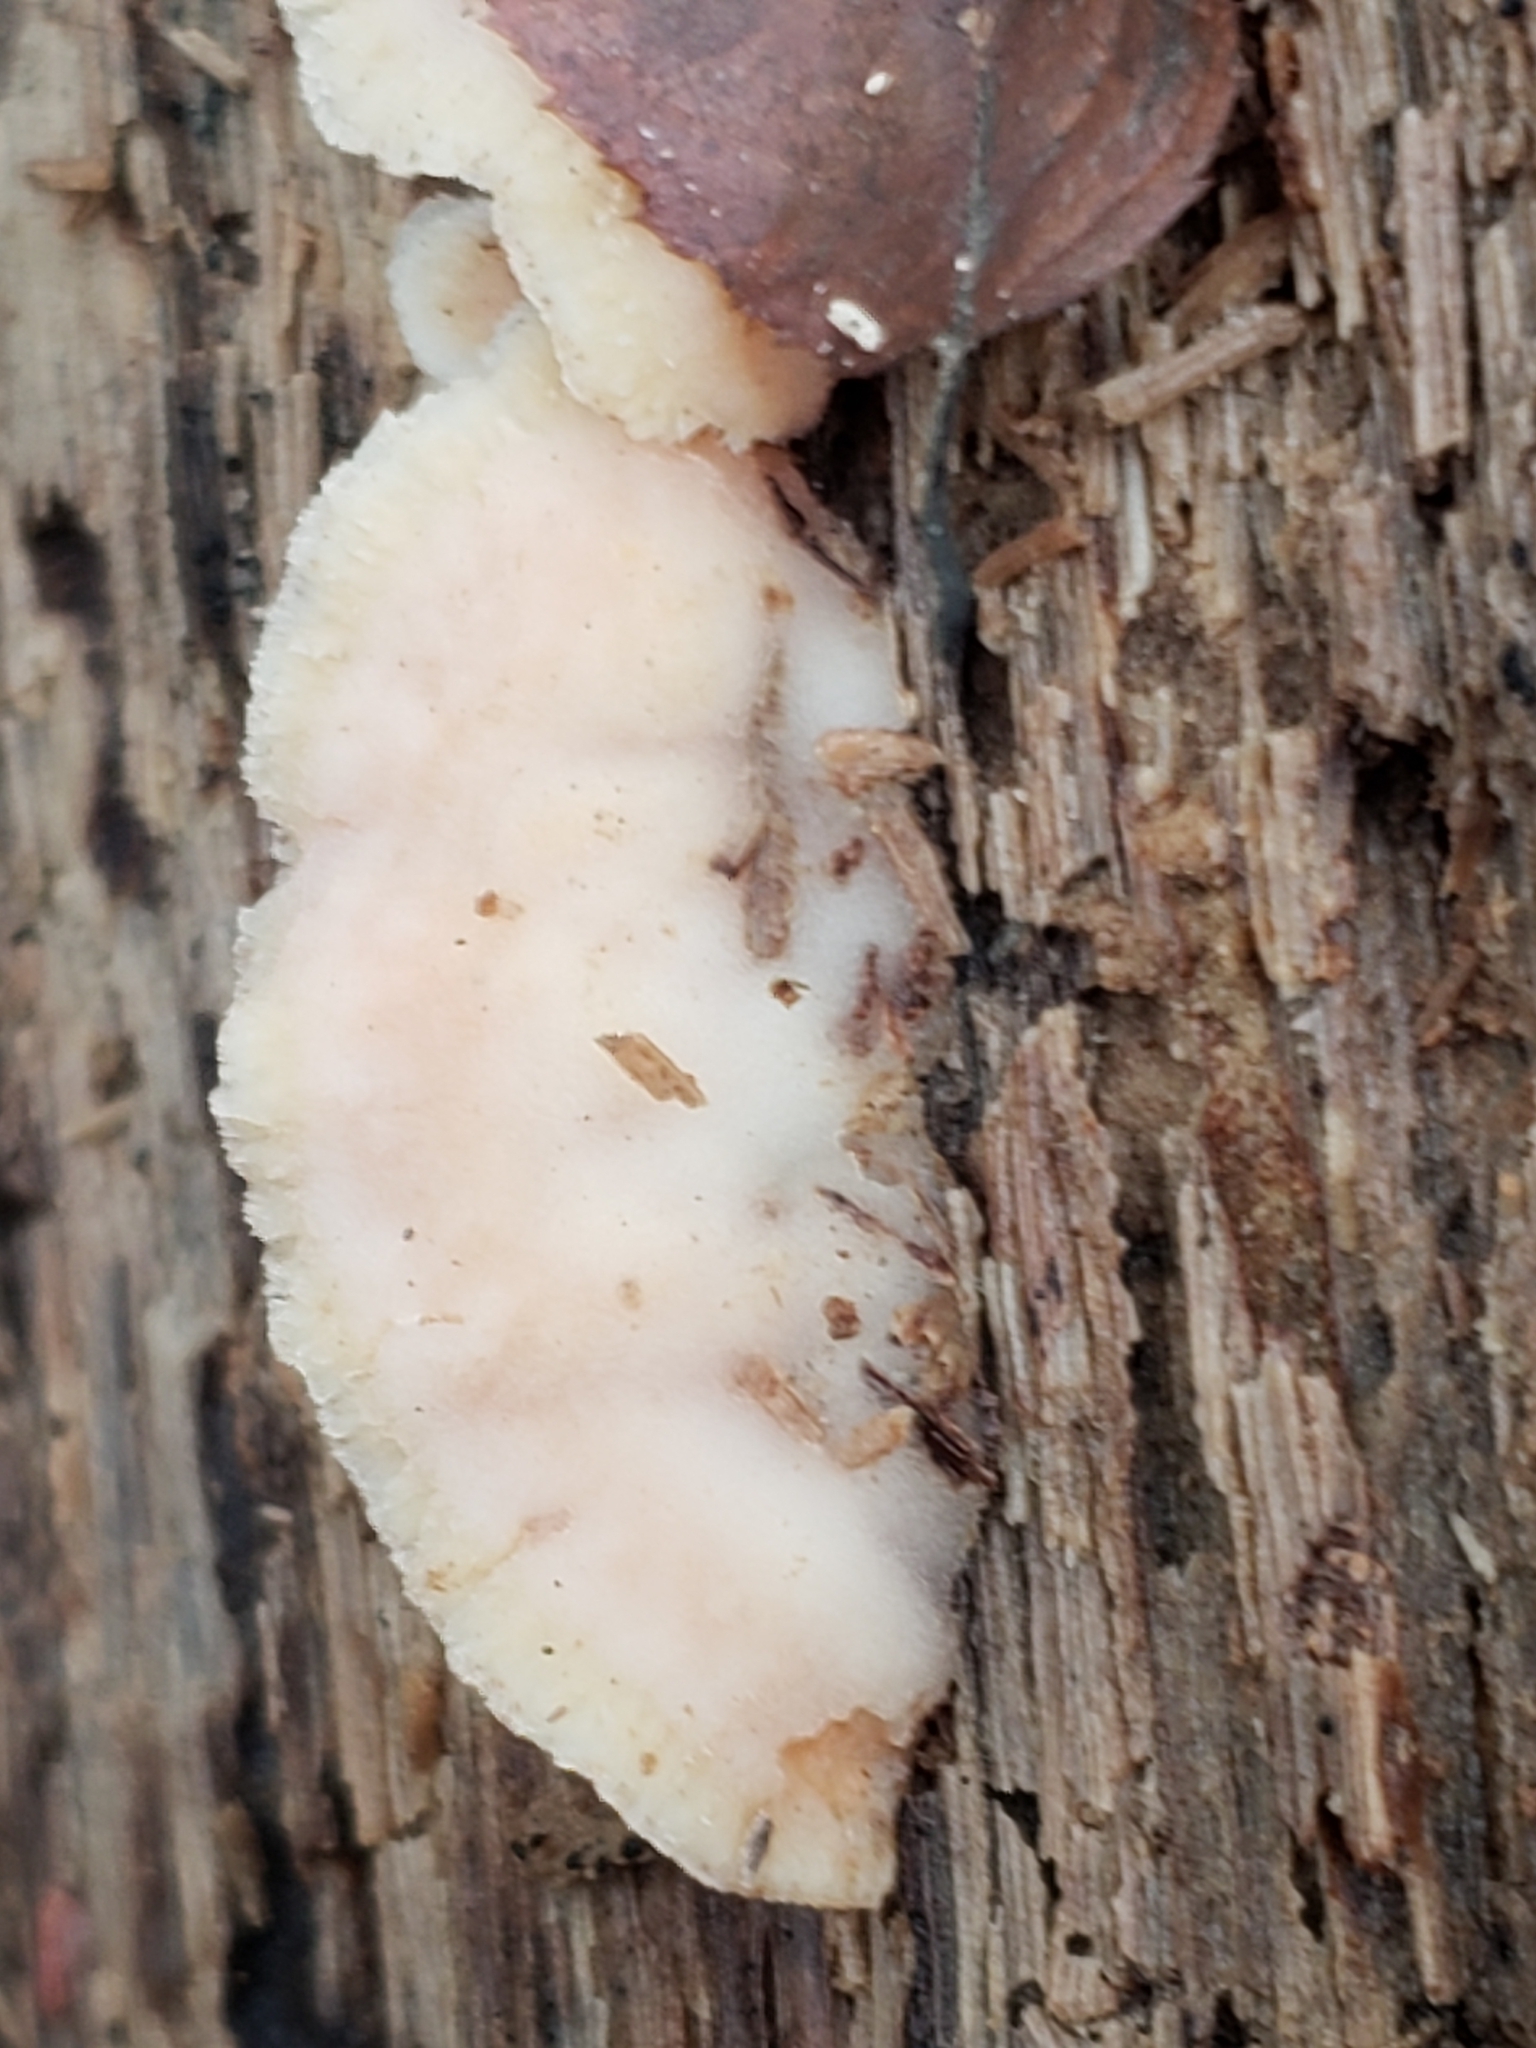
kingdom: Fungi
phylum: Basidiomycota
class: Agaricomycetes
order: Polyporales
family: Meruliaceae
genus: Phlebia
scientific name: Phlebia tremellosa
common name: Jelly rot
